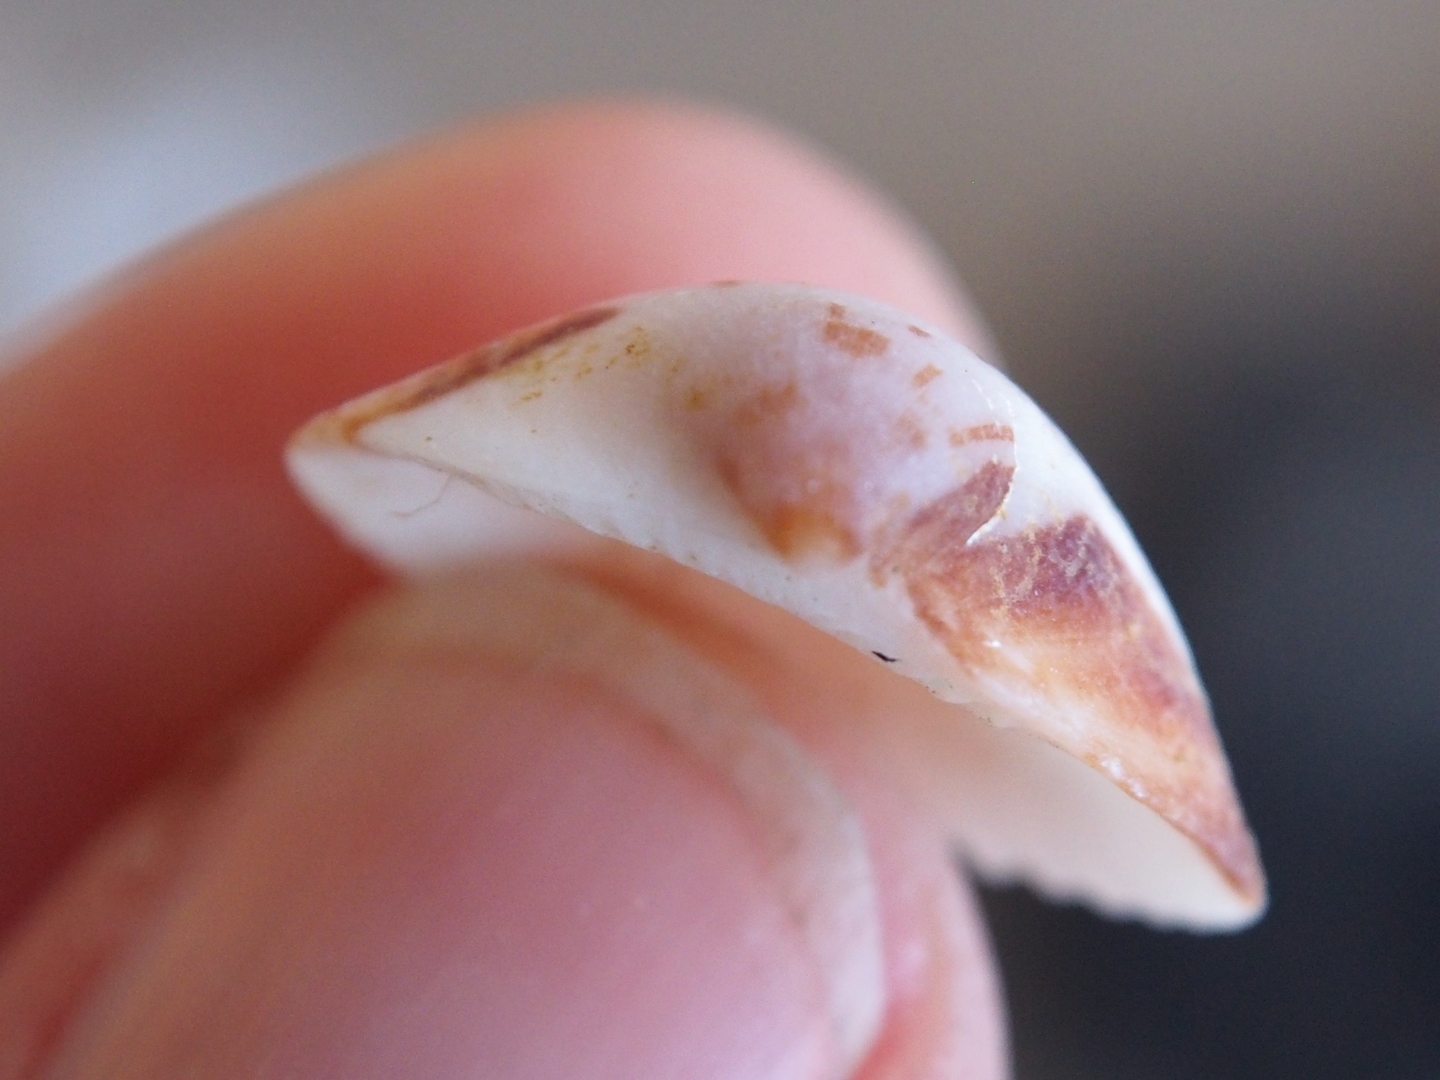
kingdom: Animalia
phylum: Mollusca
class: Bivalvia
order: Arcida
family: Glycymerididae
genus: Glycymeris
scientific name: Glycymeris spectralis
